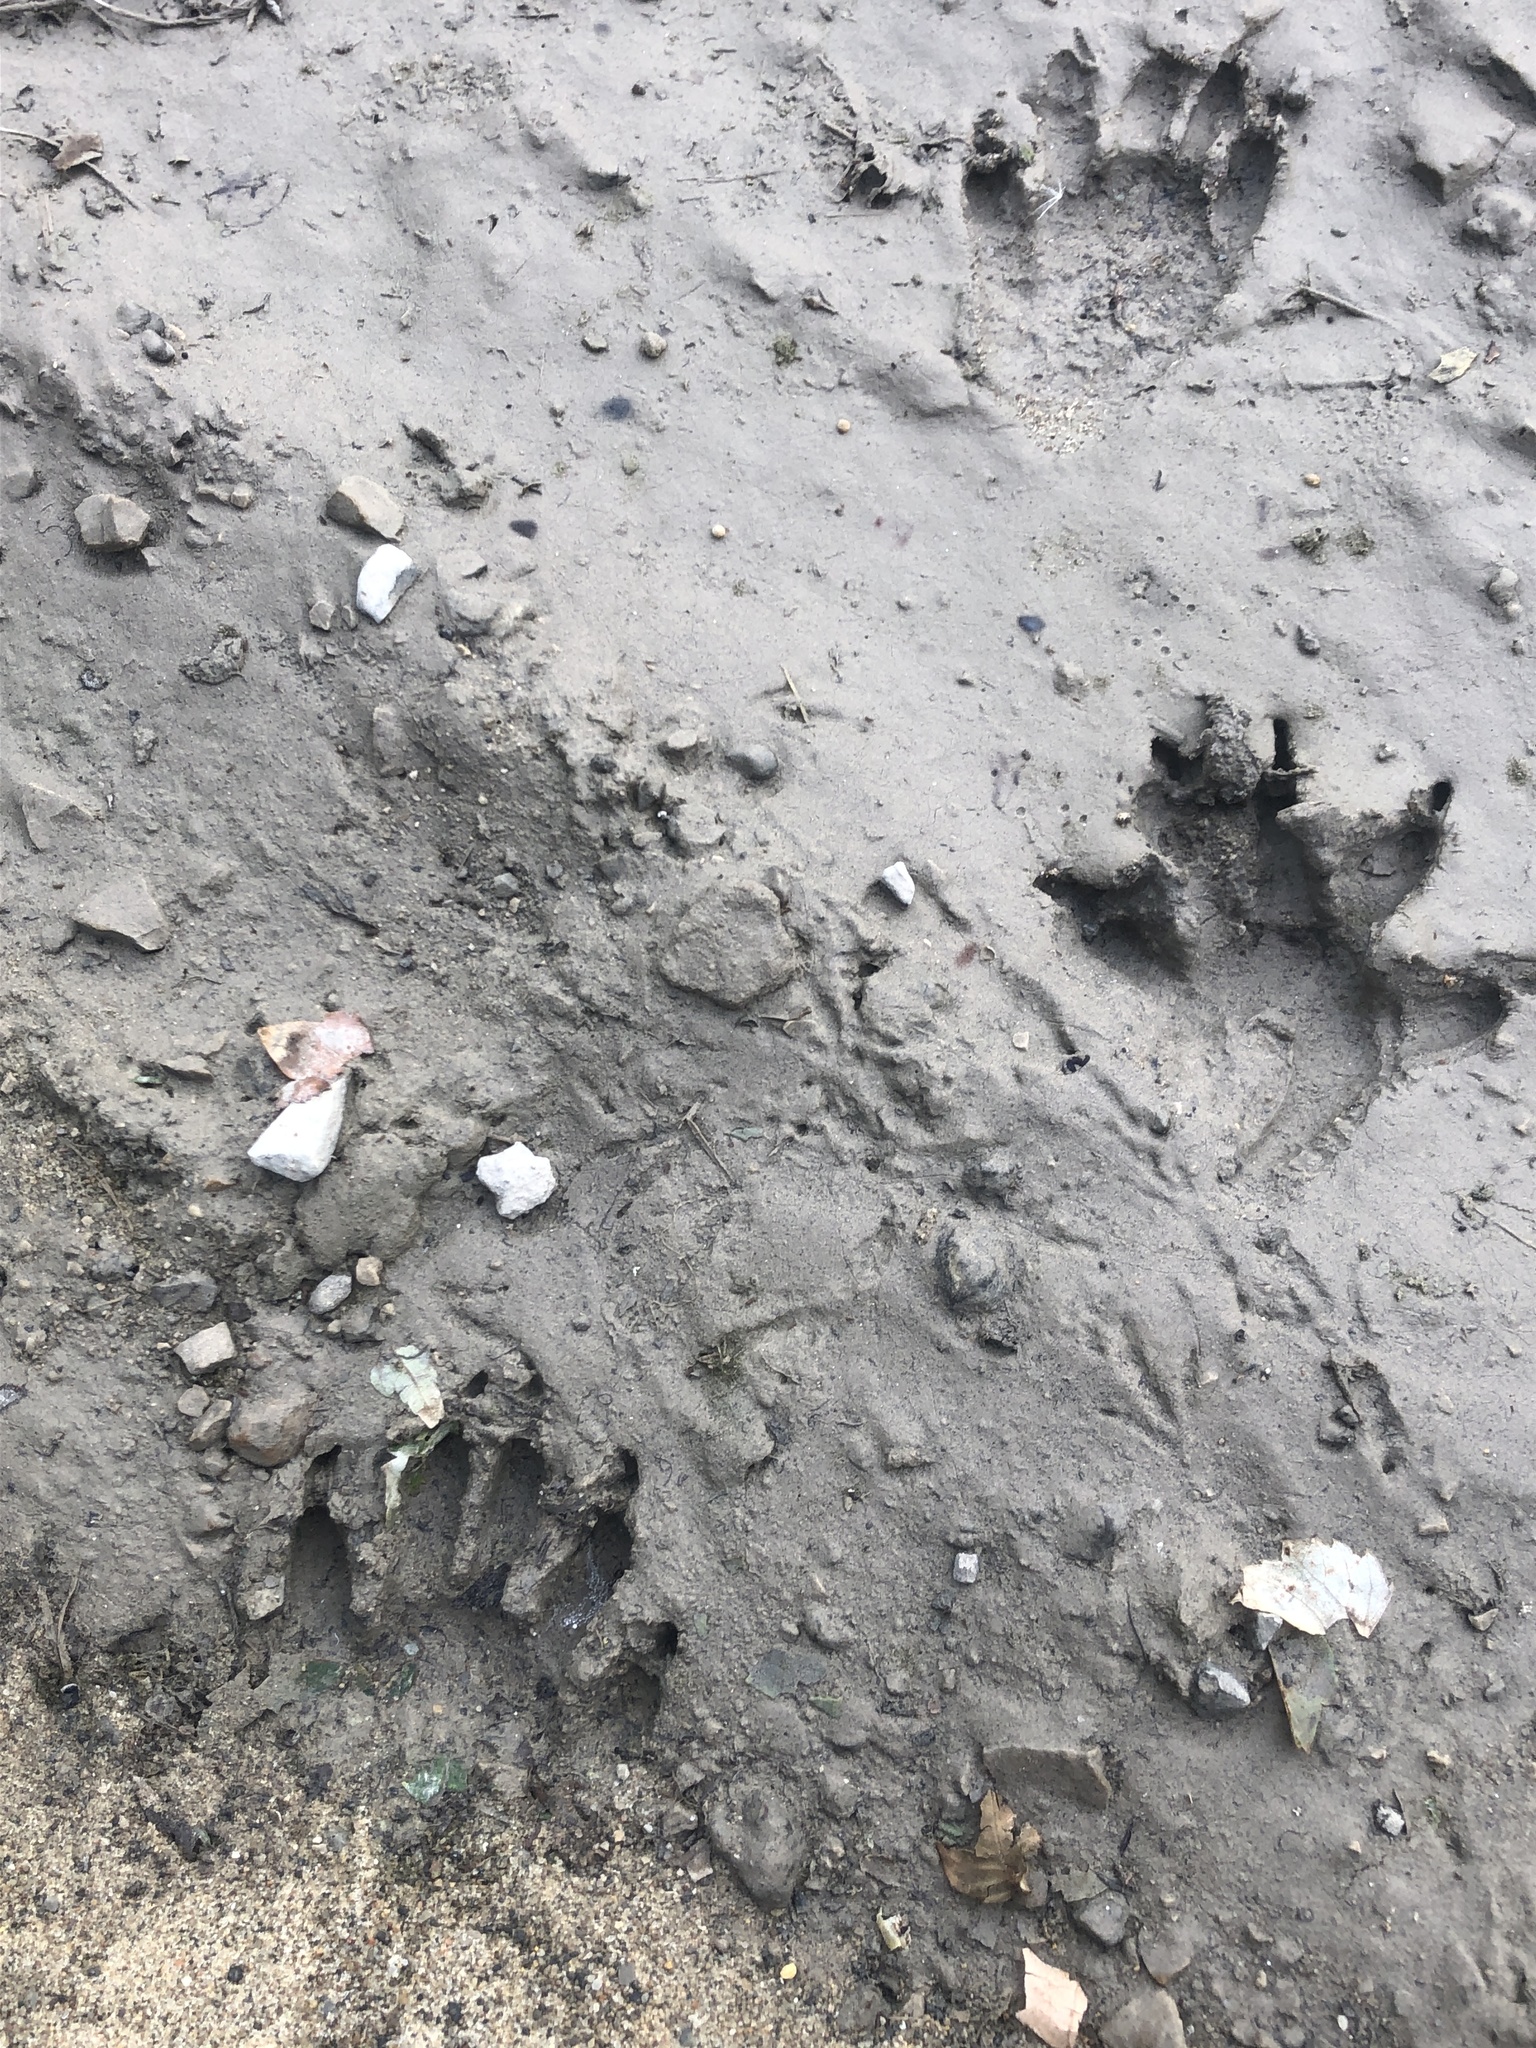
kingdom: Animalia
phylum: Chordata
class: Mammalia
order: Carnivora
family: Procyonidae
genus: Procyon
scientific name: Procyon lotor
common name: Raccoon
